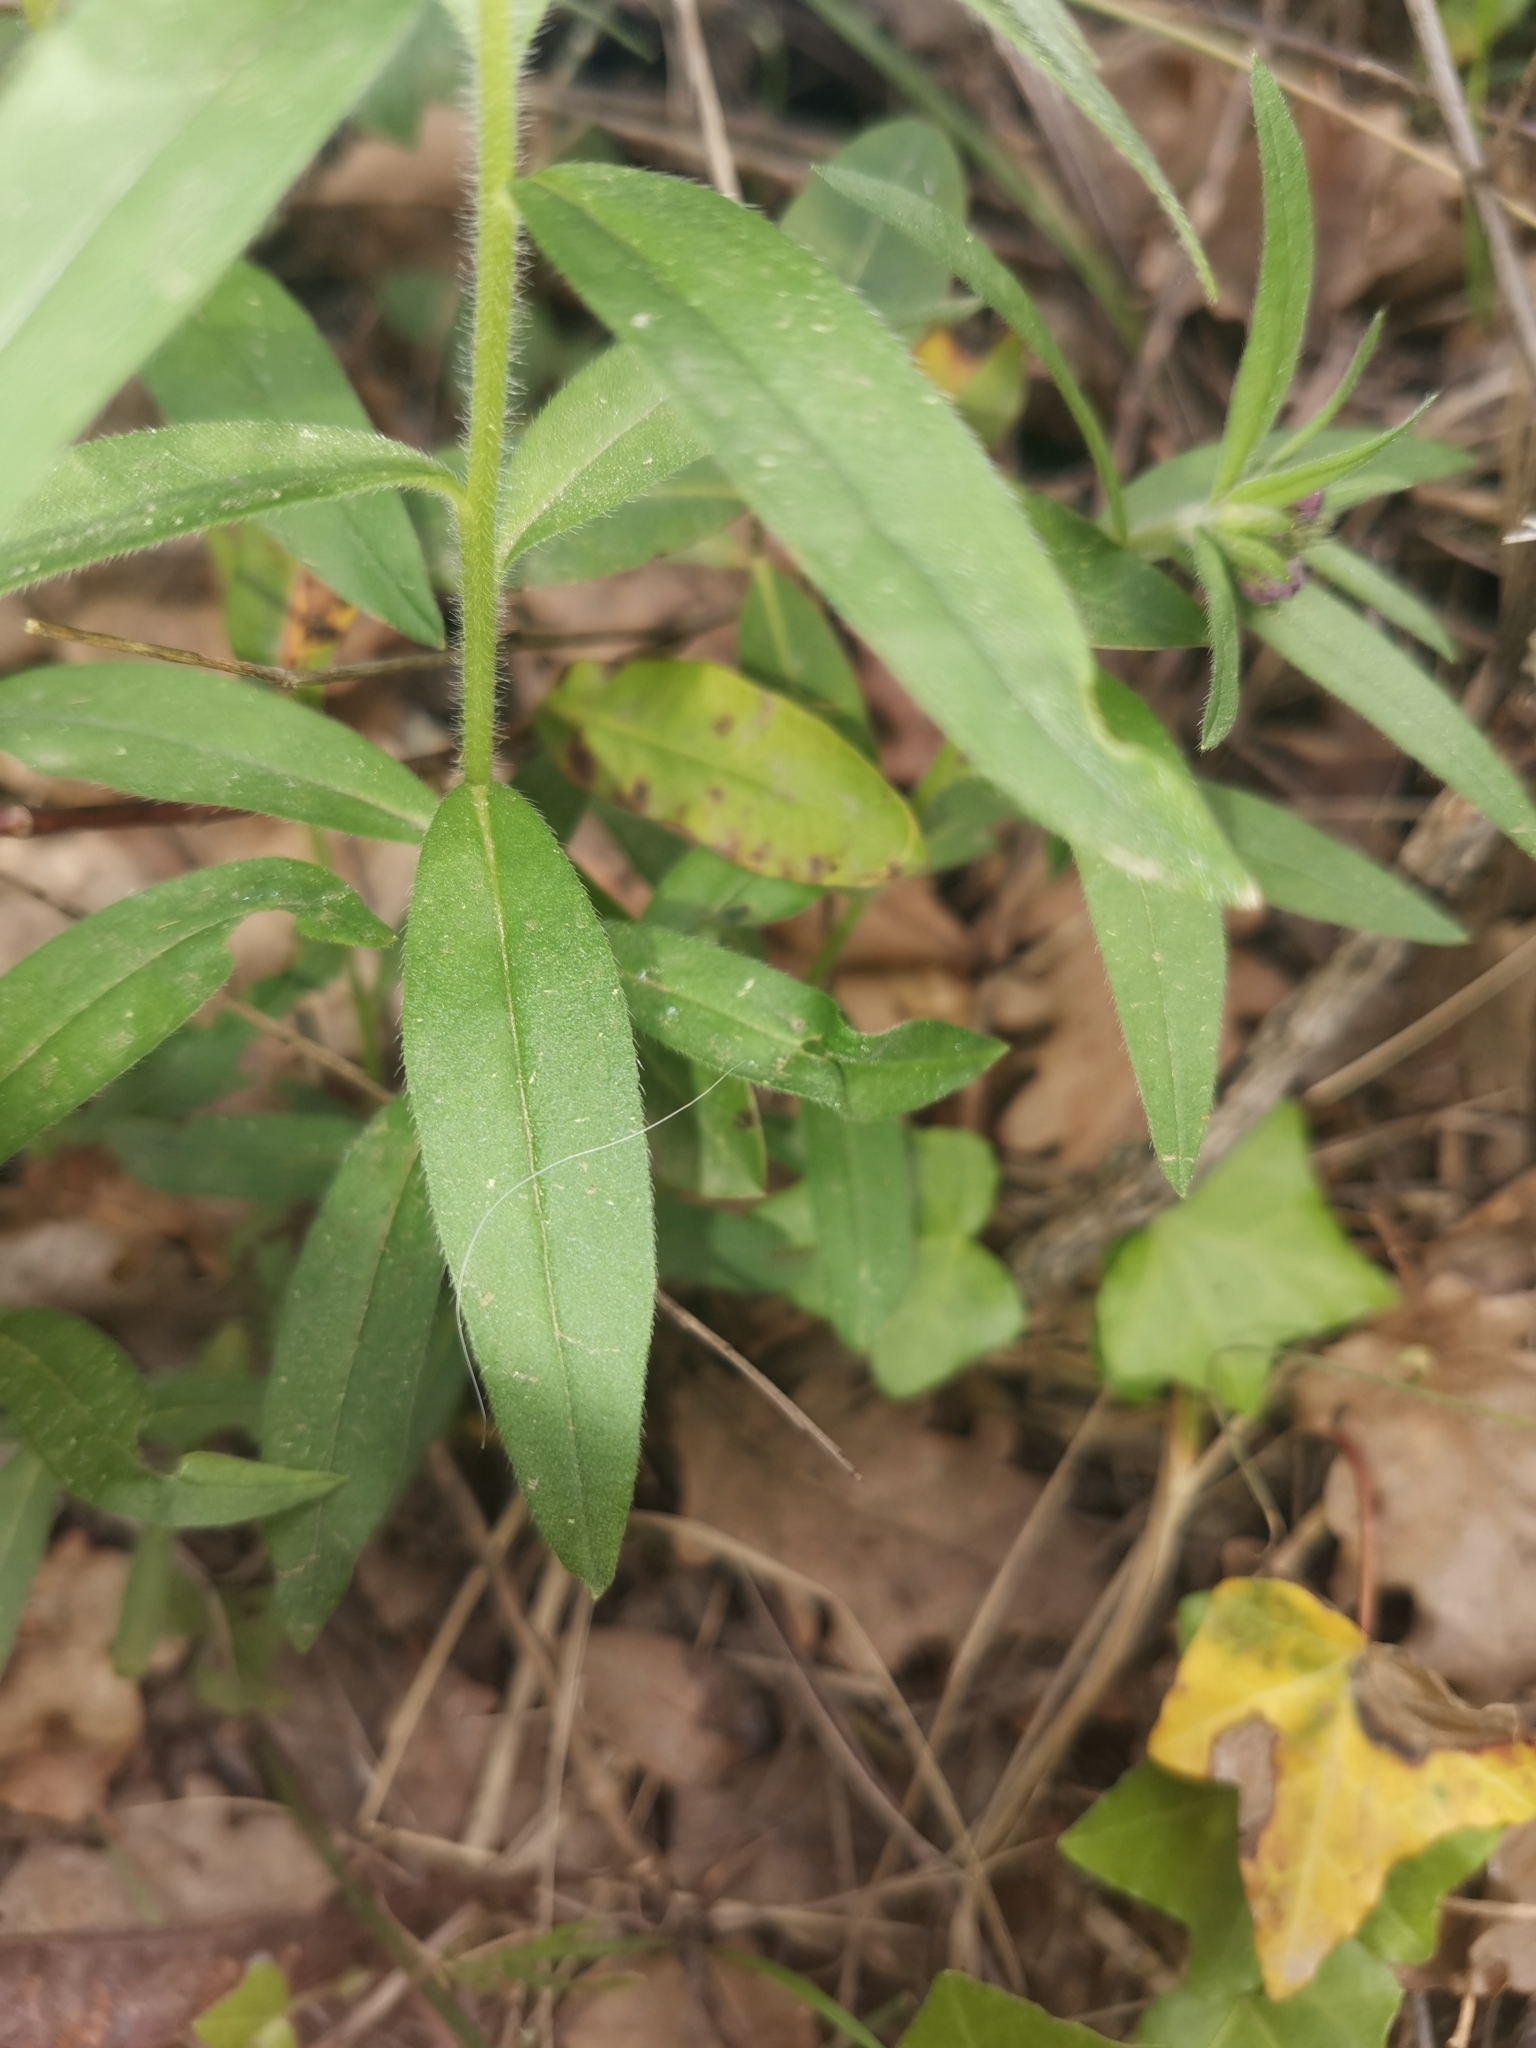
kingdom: Plantae
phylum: Tracheophyta
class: Magnoliopsida
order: Boraginales
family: Boraginaceae
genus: Aegonychon
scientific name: Aegonychon purpurocaeruleum
